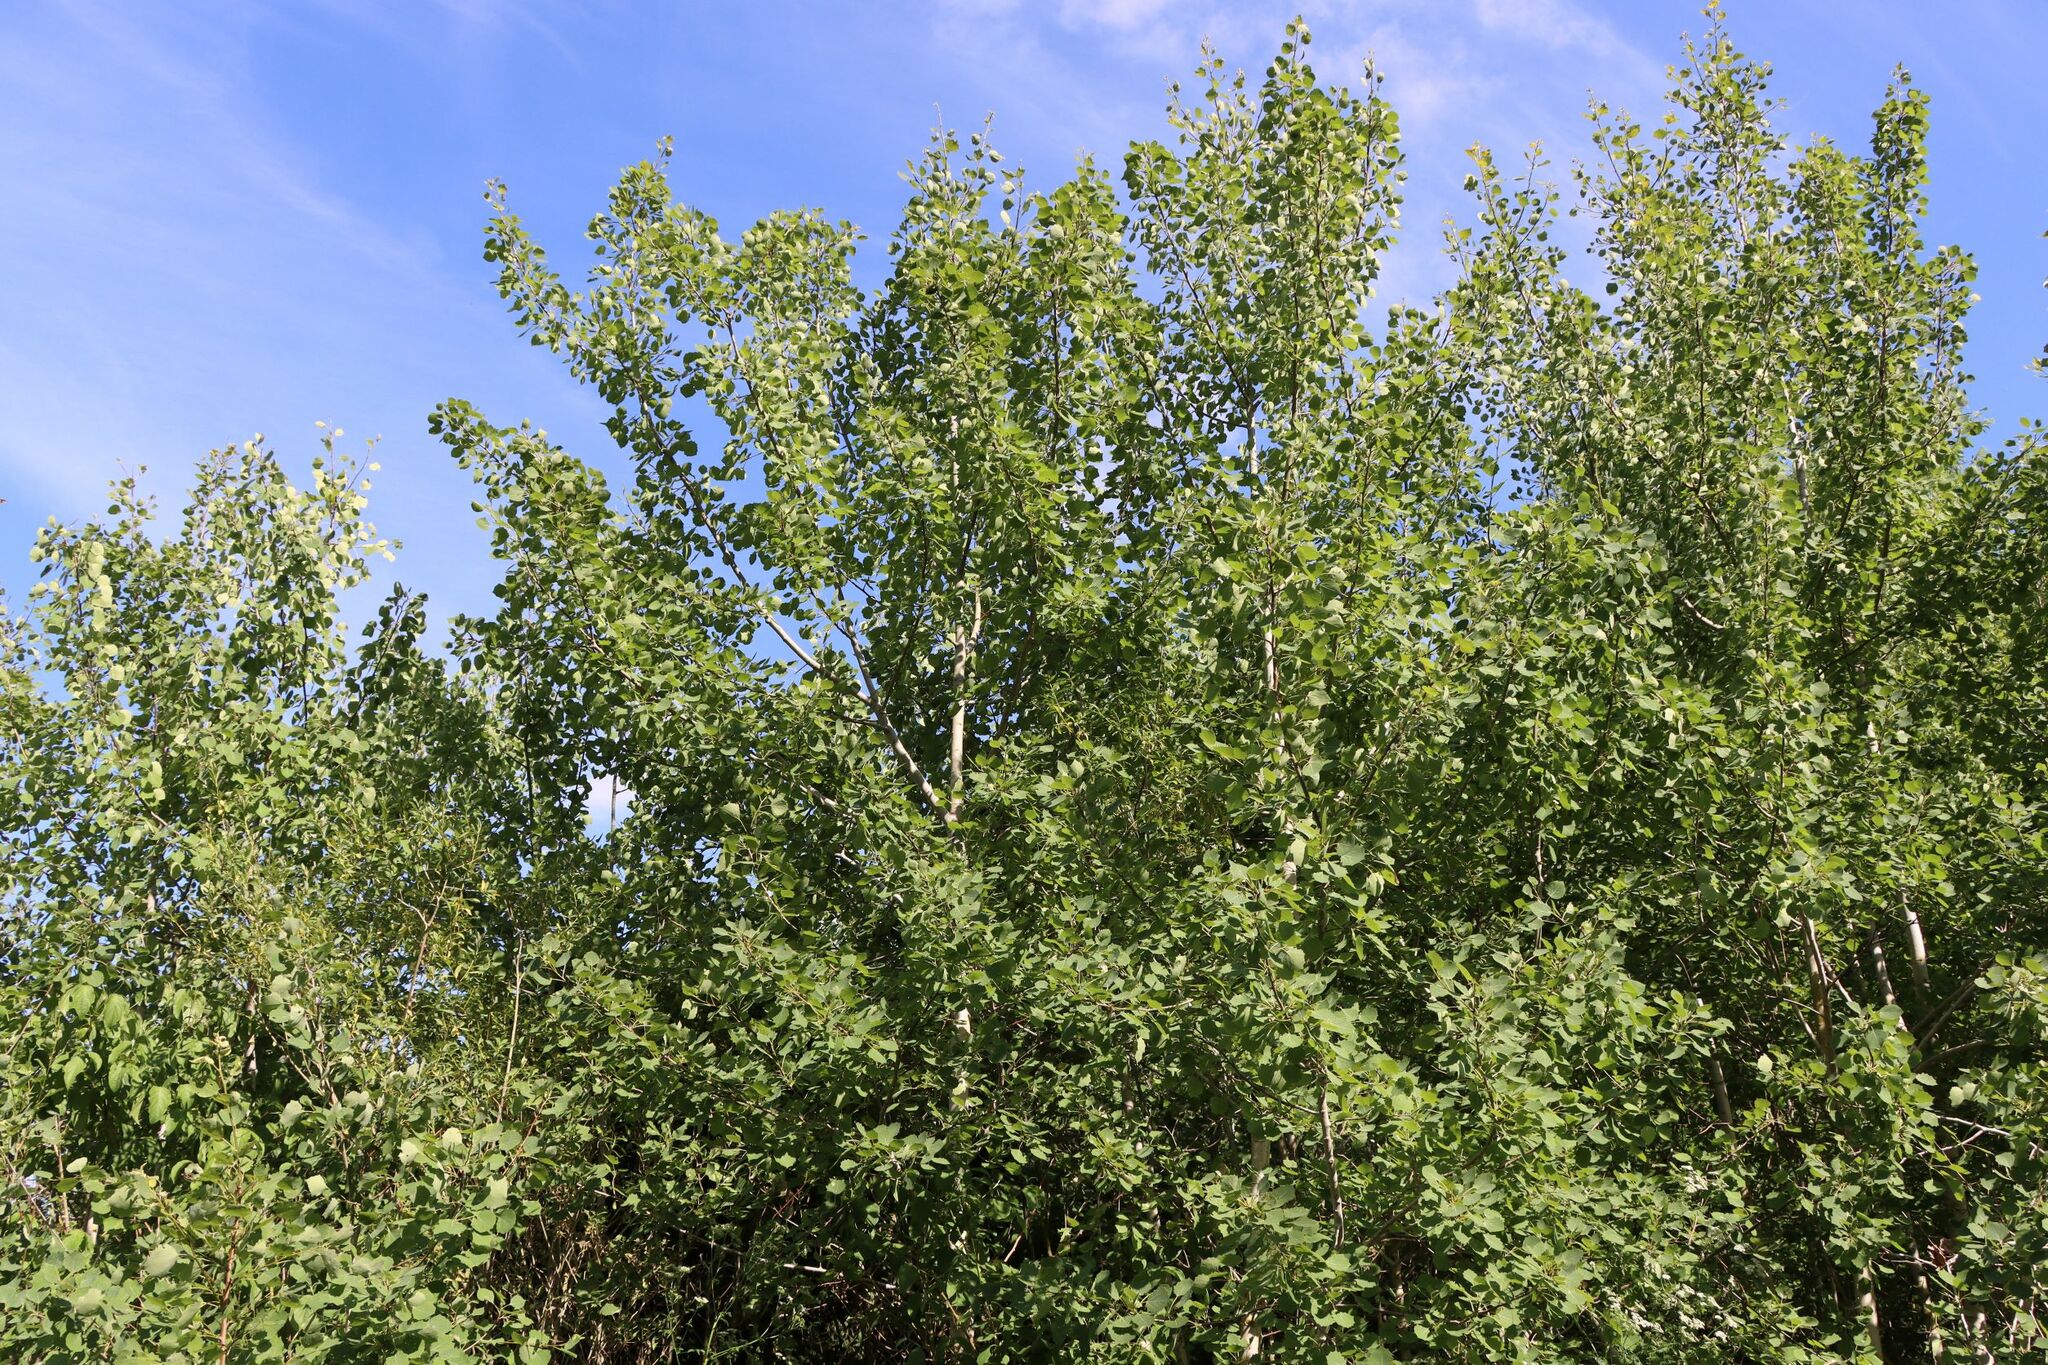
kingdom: Plantae
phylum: Tracheophyta
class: Magnoliopsida
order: Malpighiales
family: Salicaceae
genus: Populus
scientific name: Populus tremula
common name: European aspen
